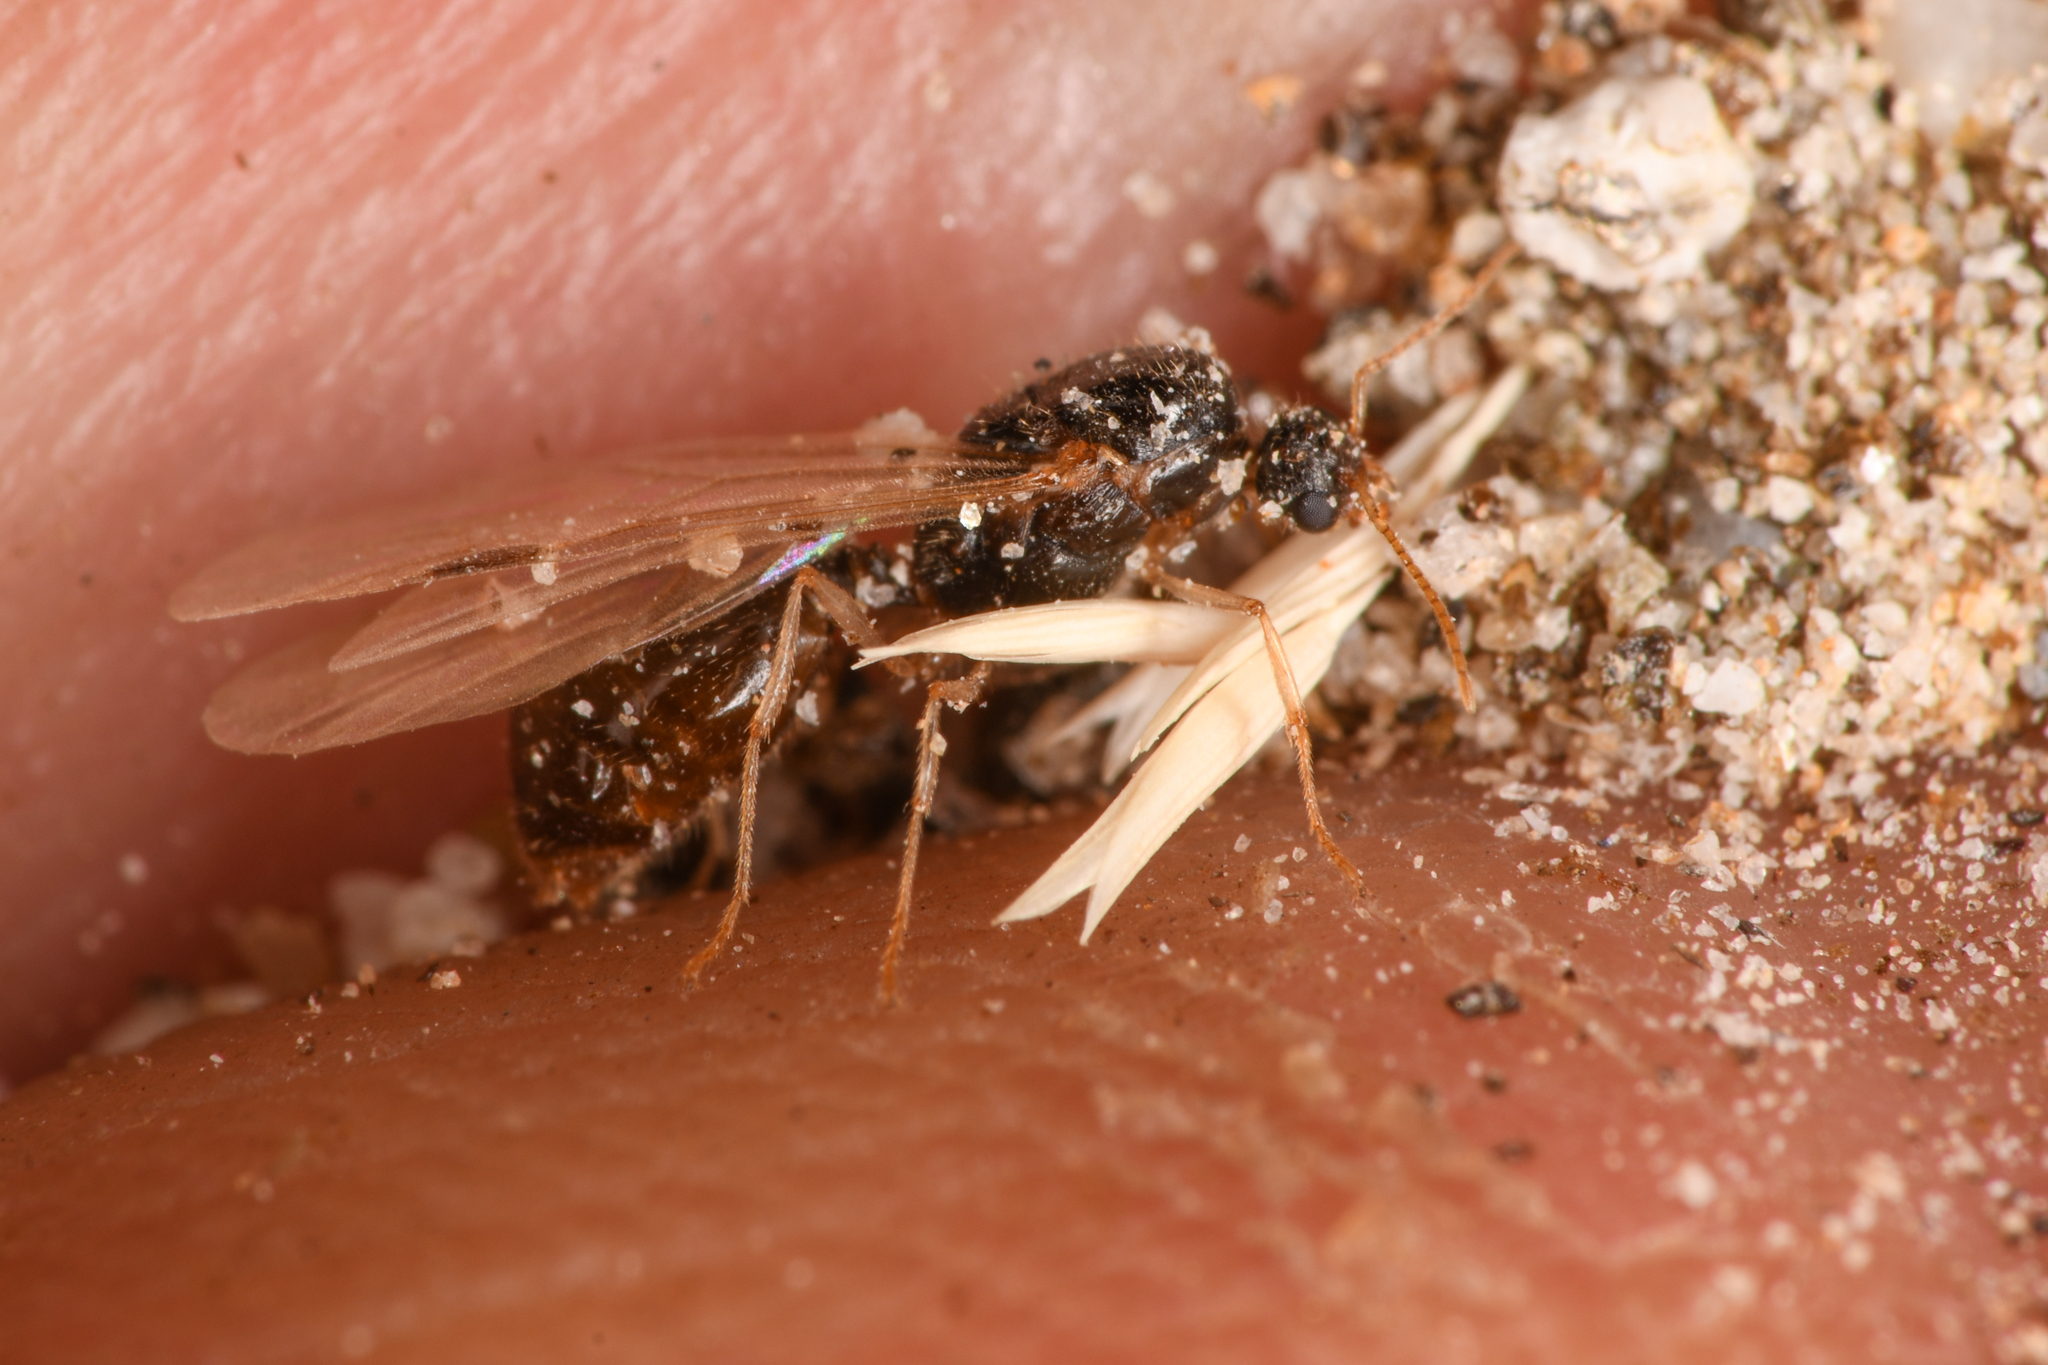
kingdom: Animalia
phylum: Arthropoda
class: Insecta
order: Hymenoptera
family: Formicidae
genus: Messor
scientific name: Messor pergandei
